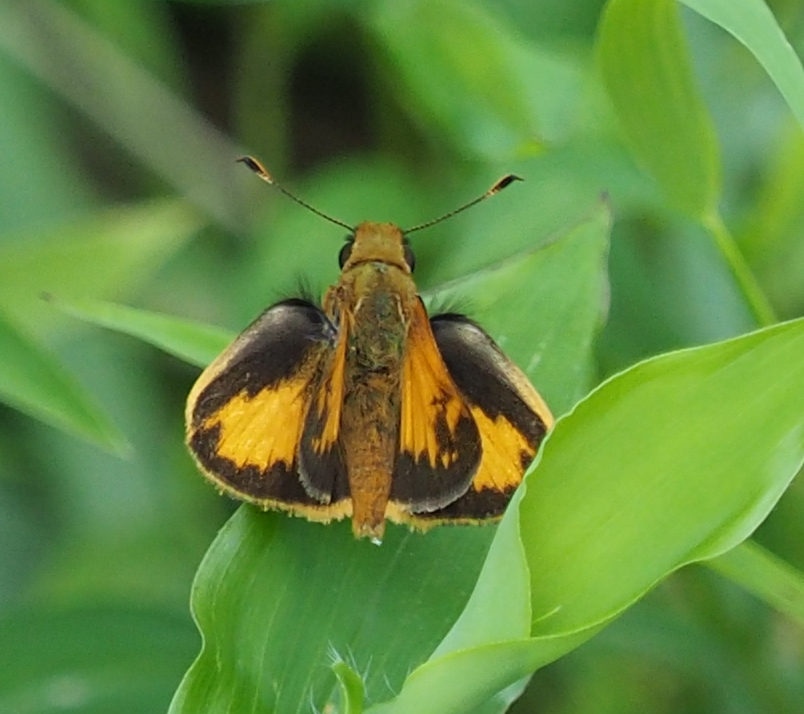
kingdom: Animalia
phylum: Arthropoda
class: Insecta
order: Lepidoptera
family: Hesperiidae
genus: Lon
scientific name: Lon zabulon
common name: Zabulon skipper
